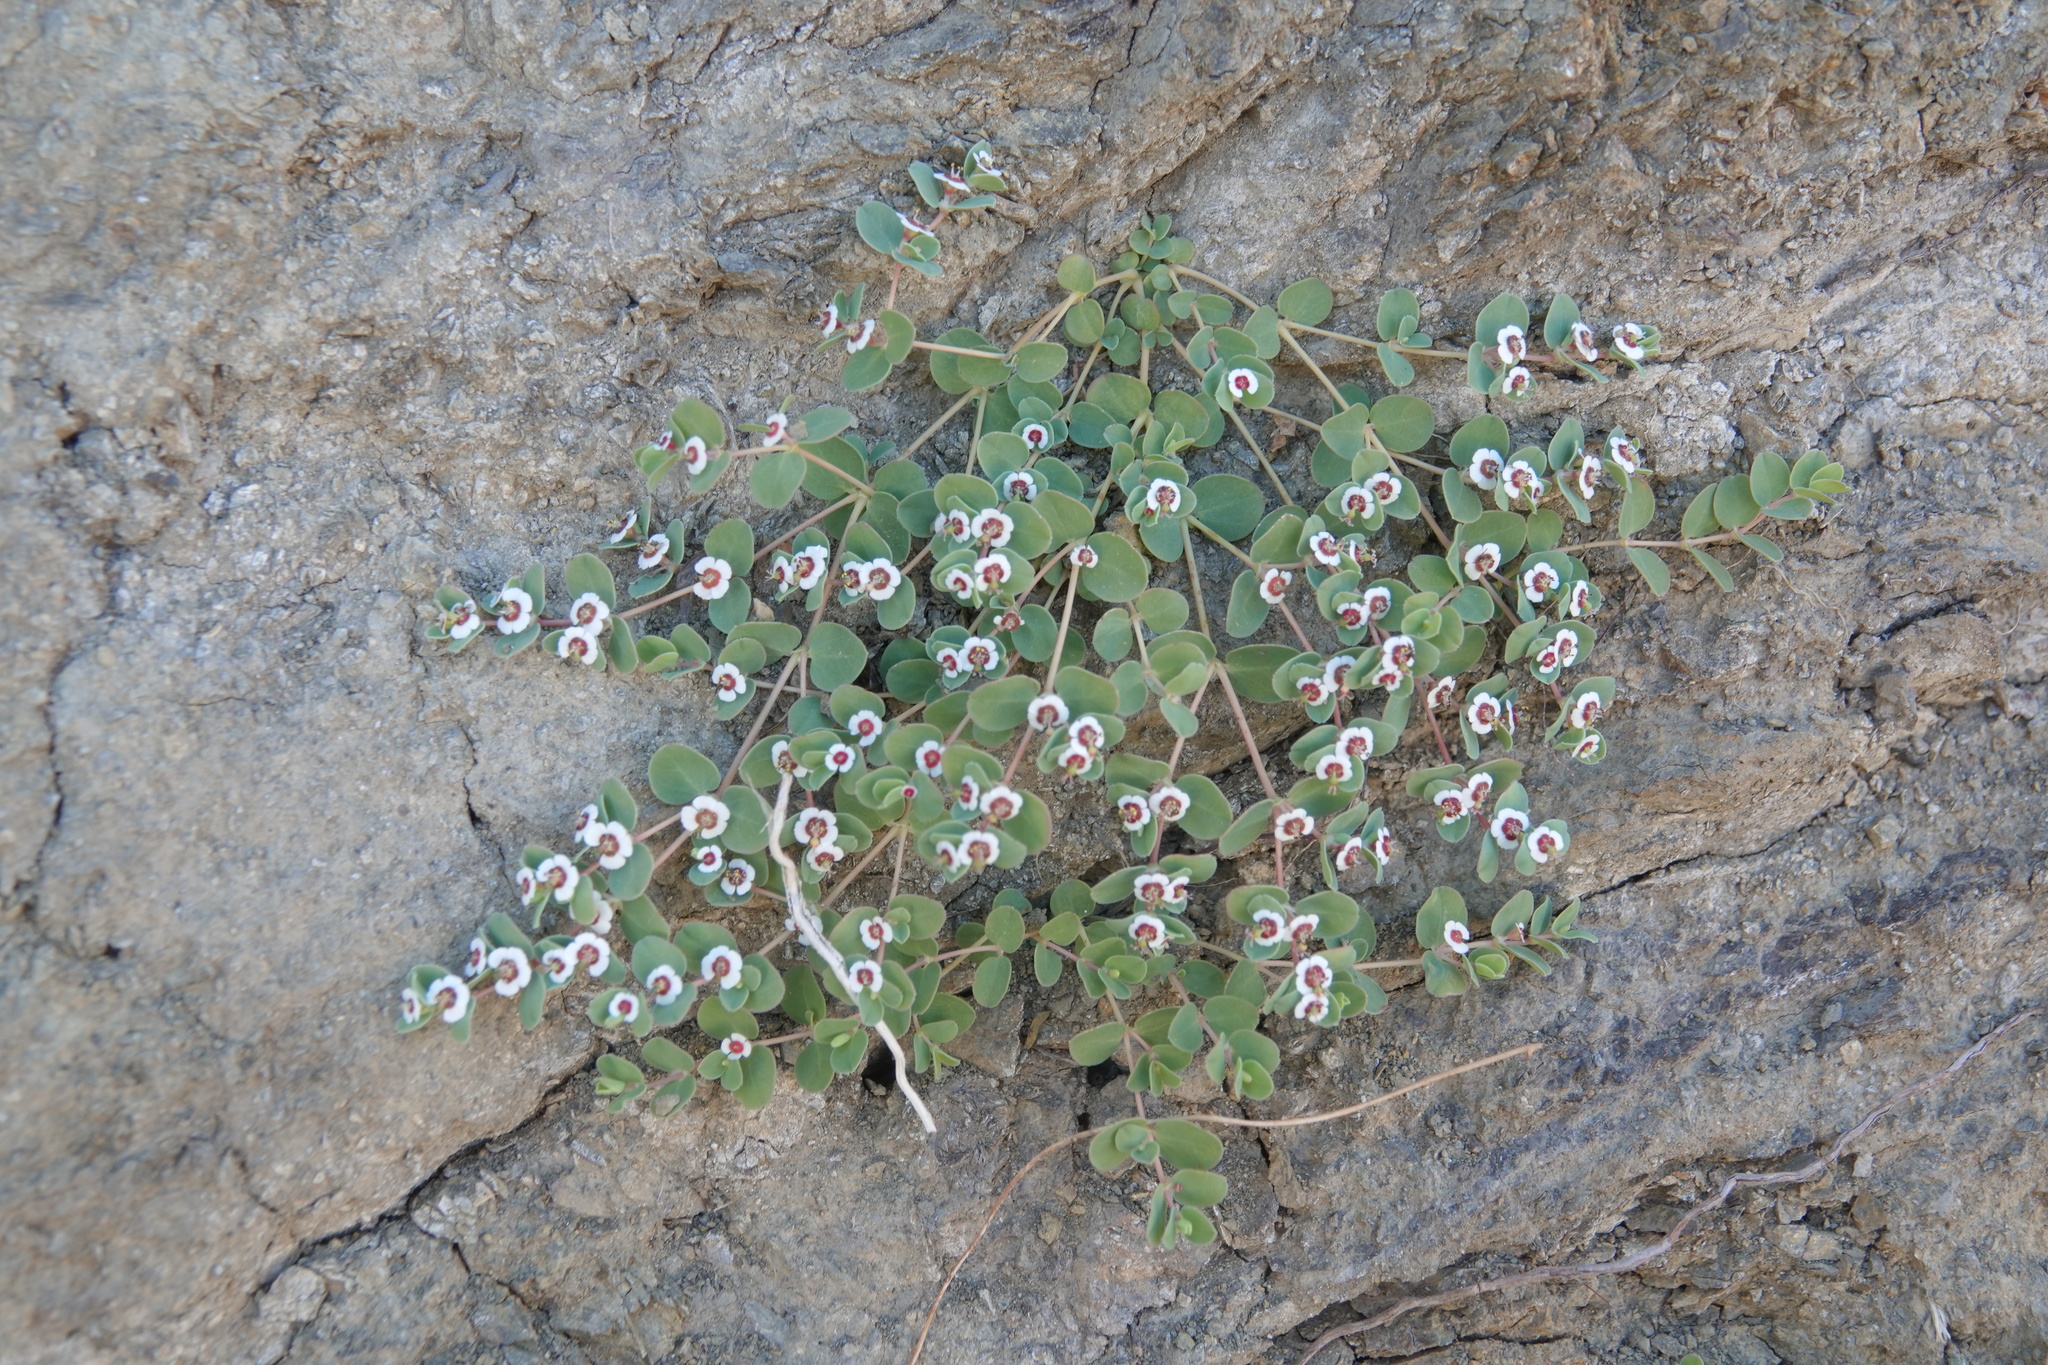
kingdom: Plantae
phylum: Tracheophyta
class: Magnoliopsida
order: Malpighiales
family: Euphorbiaceae
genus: Euphorbia
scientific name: Euphorbia albomarginata
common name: Whitemargin sandmat
